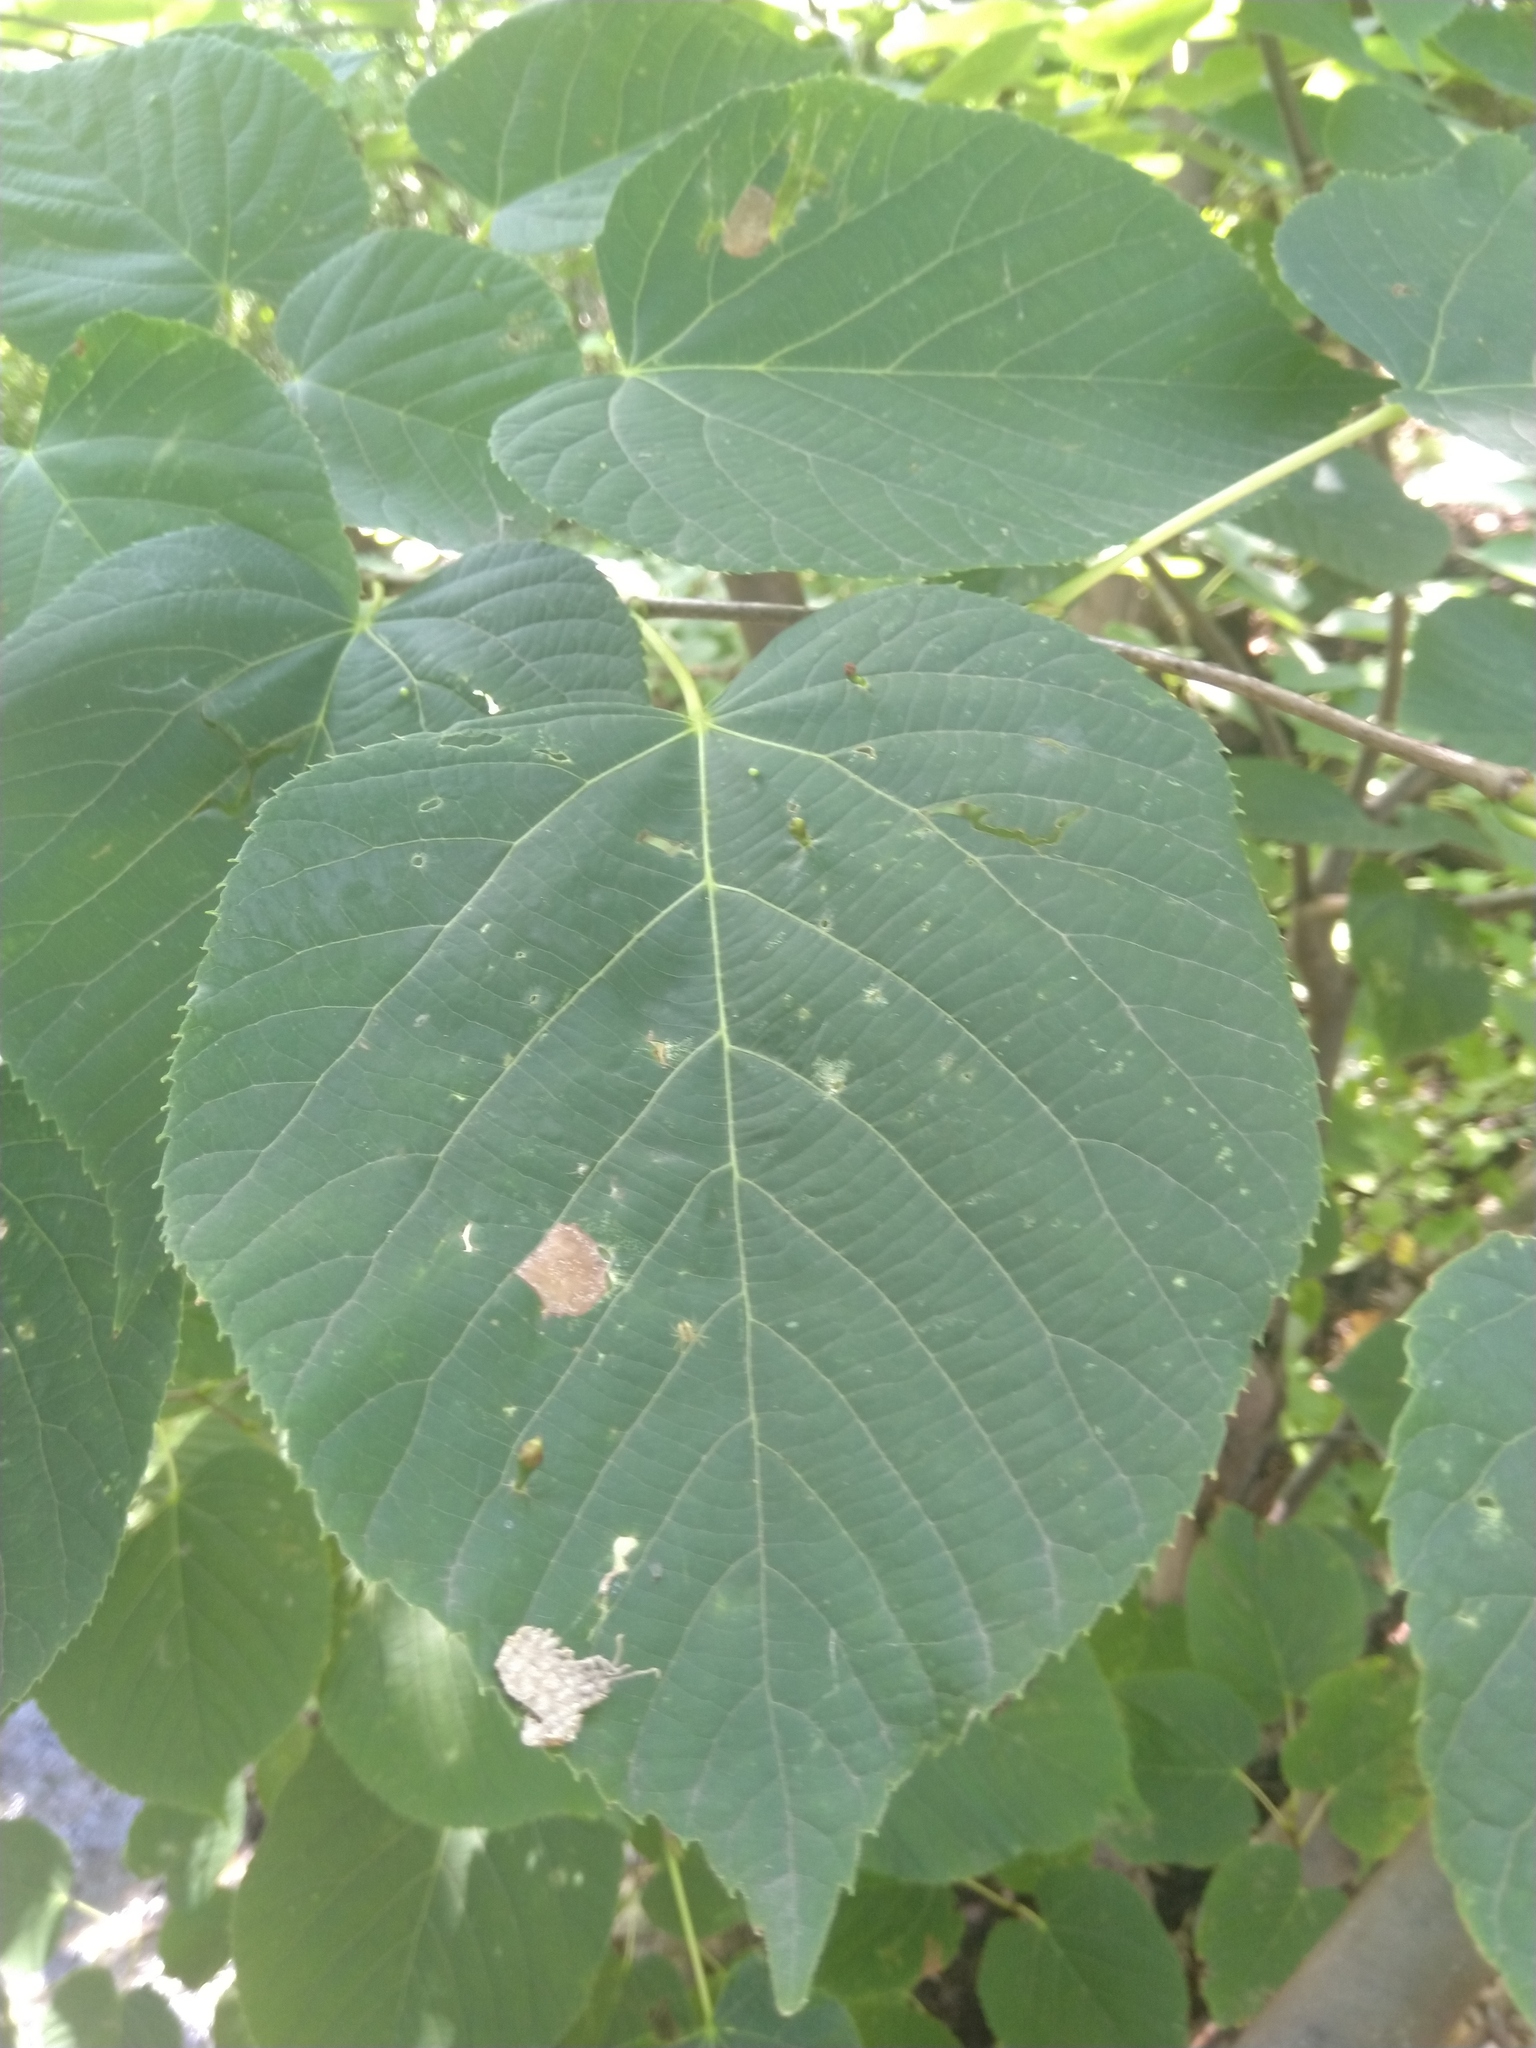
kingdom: Animalia
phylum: Arthropoda
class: Arachnida
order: Trombidiformes
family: Eriophyidae
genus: Eriophyes
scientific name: Eriophyes tiliae
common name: Red nail gall mite
